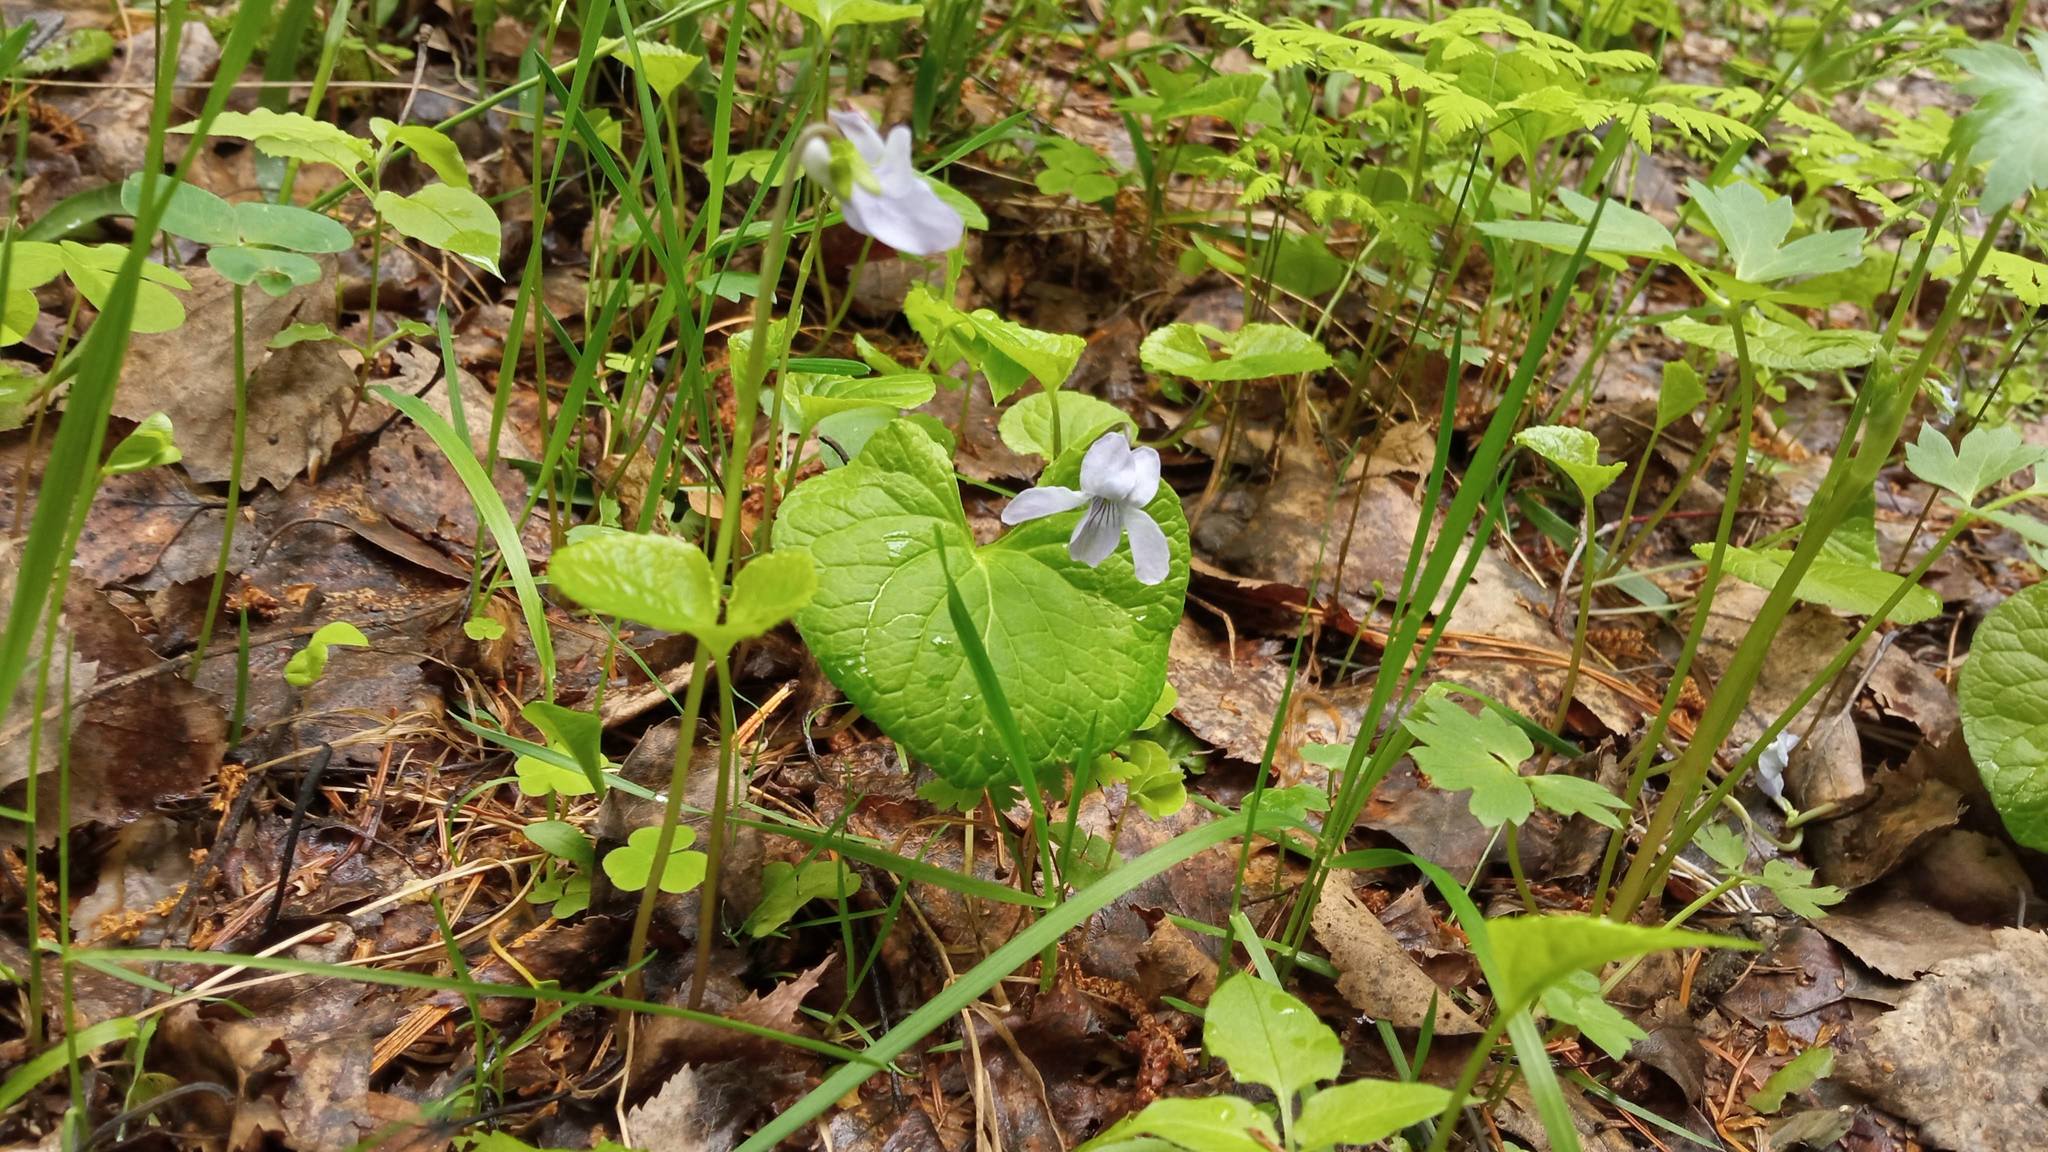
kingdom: Plantae
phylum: Tracheophyta
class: Magnoliopsida
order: Malpighiales
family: Violaceae
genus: Viola
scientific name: Viola epipsila
